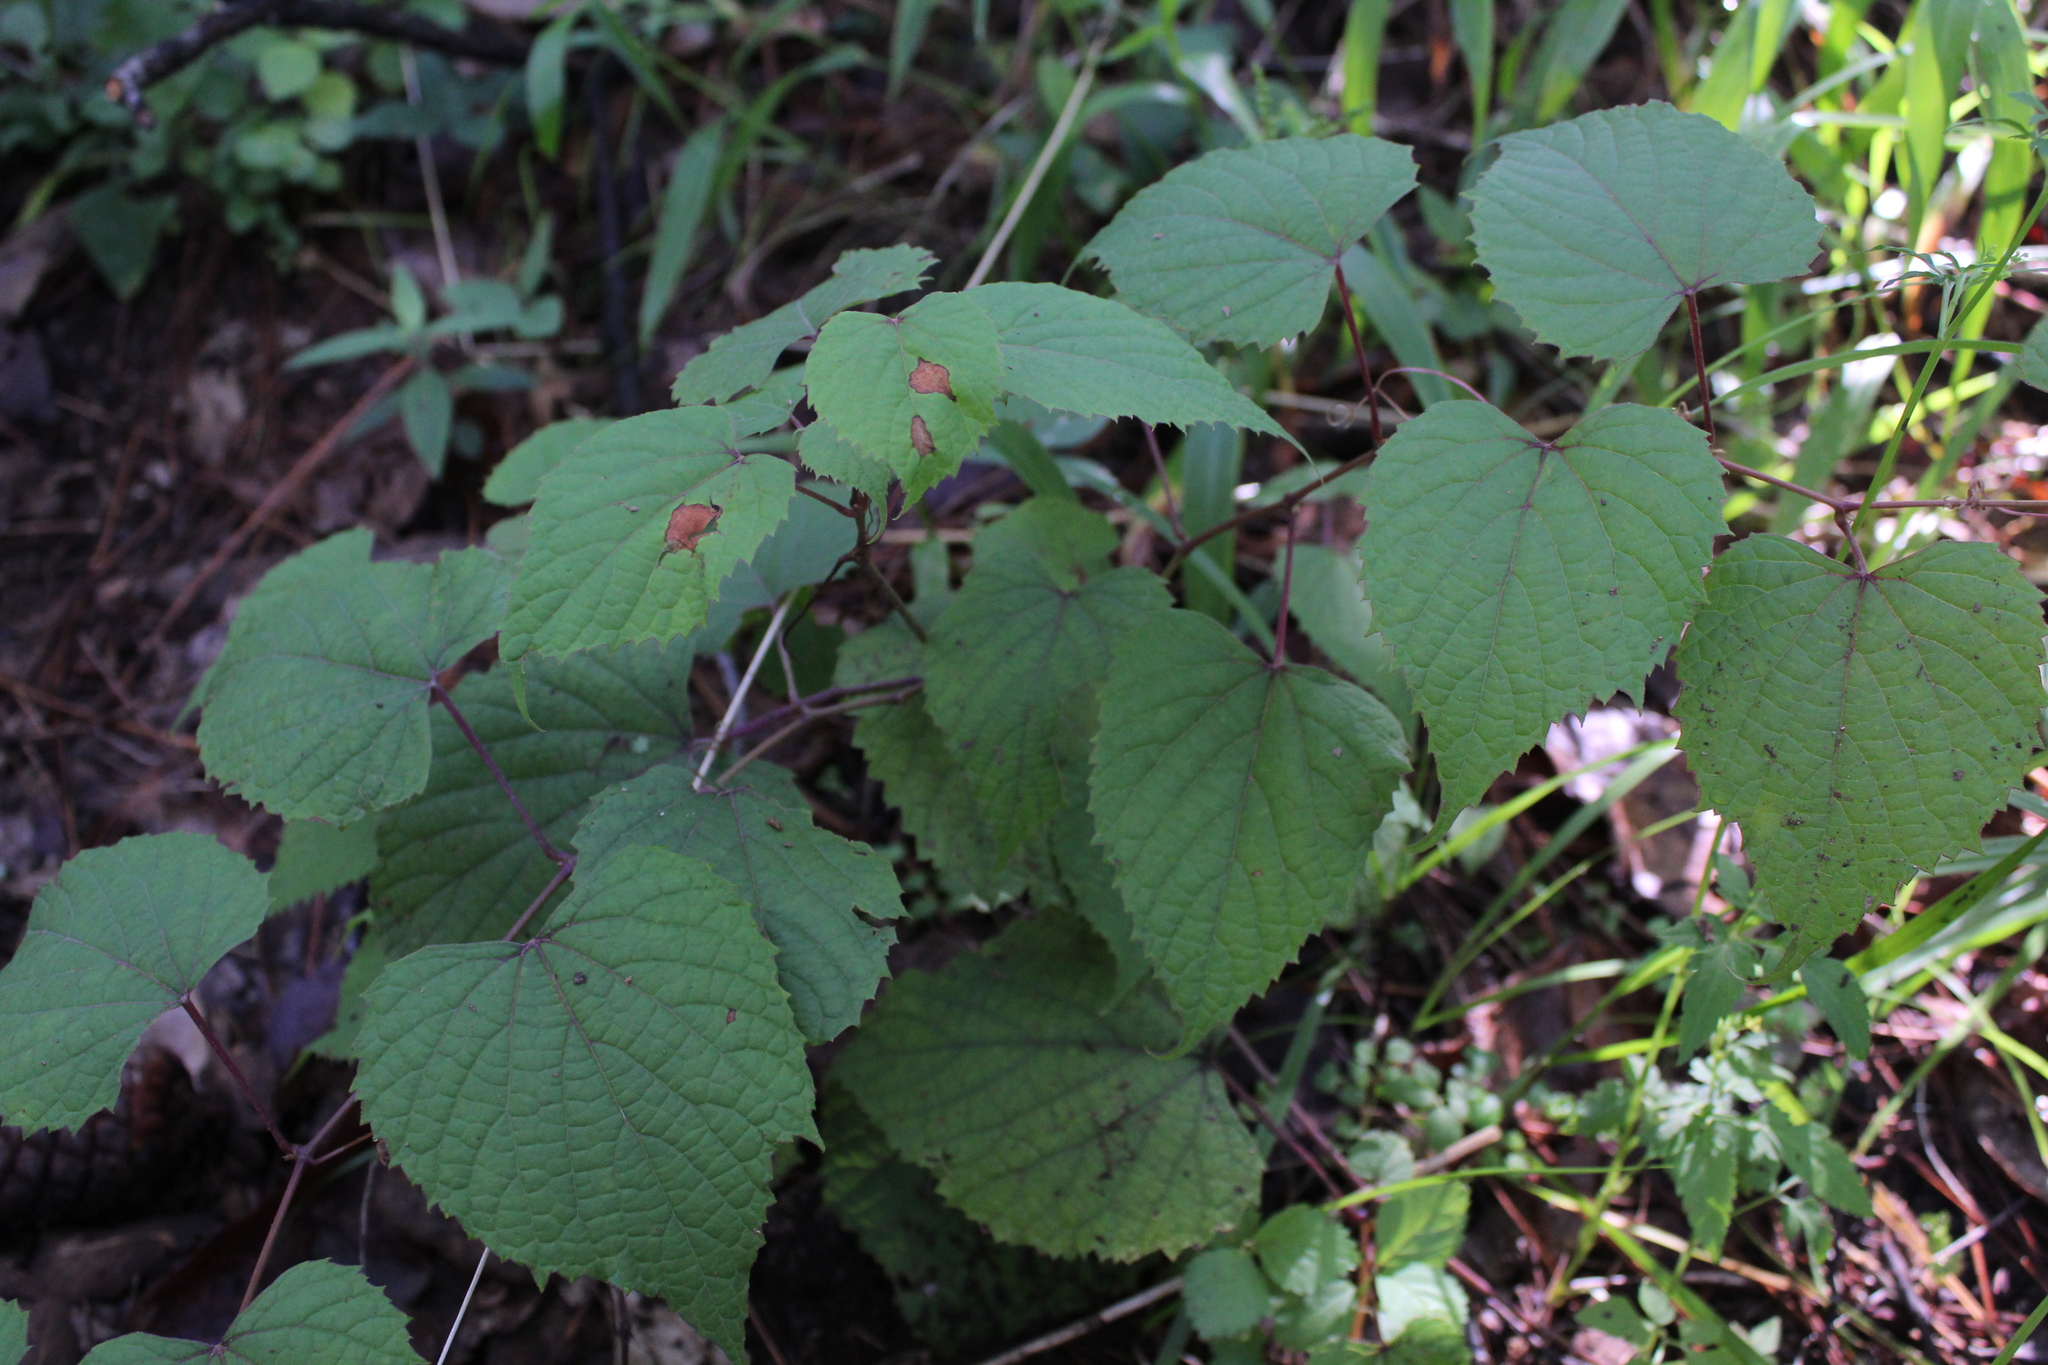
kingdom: Plantae
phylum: Tracheophyta
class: Magnoliopsida
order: Vitales
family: Vitaceae
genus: Vitis
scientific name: Vitis tiliifolia
